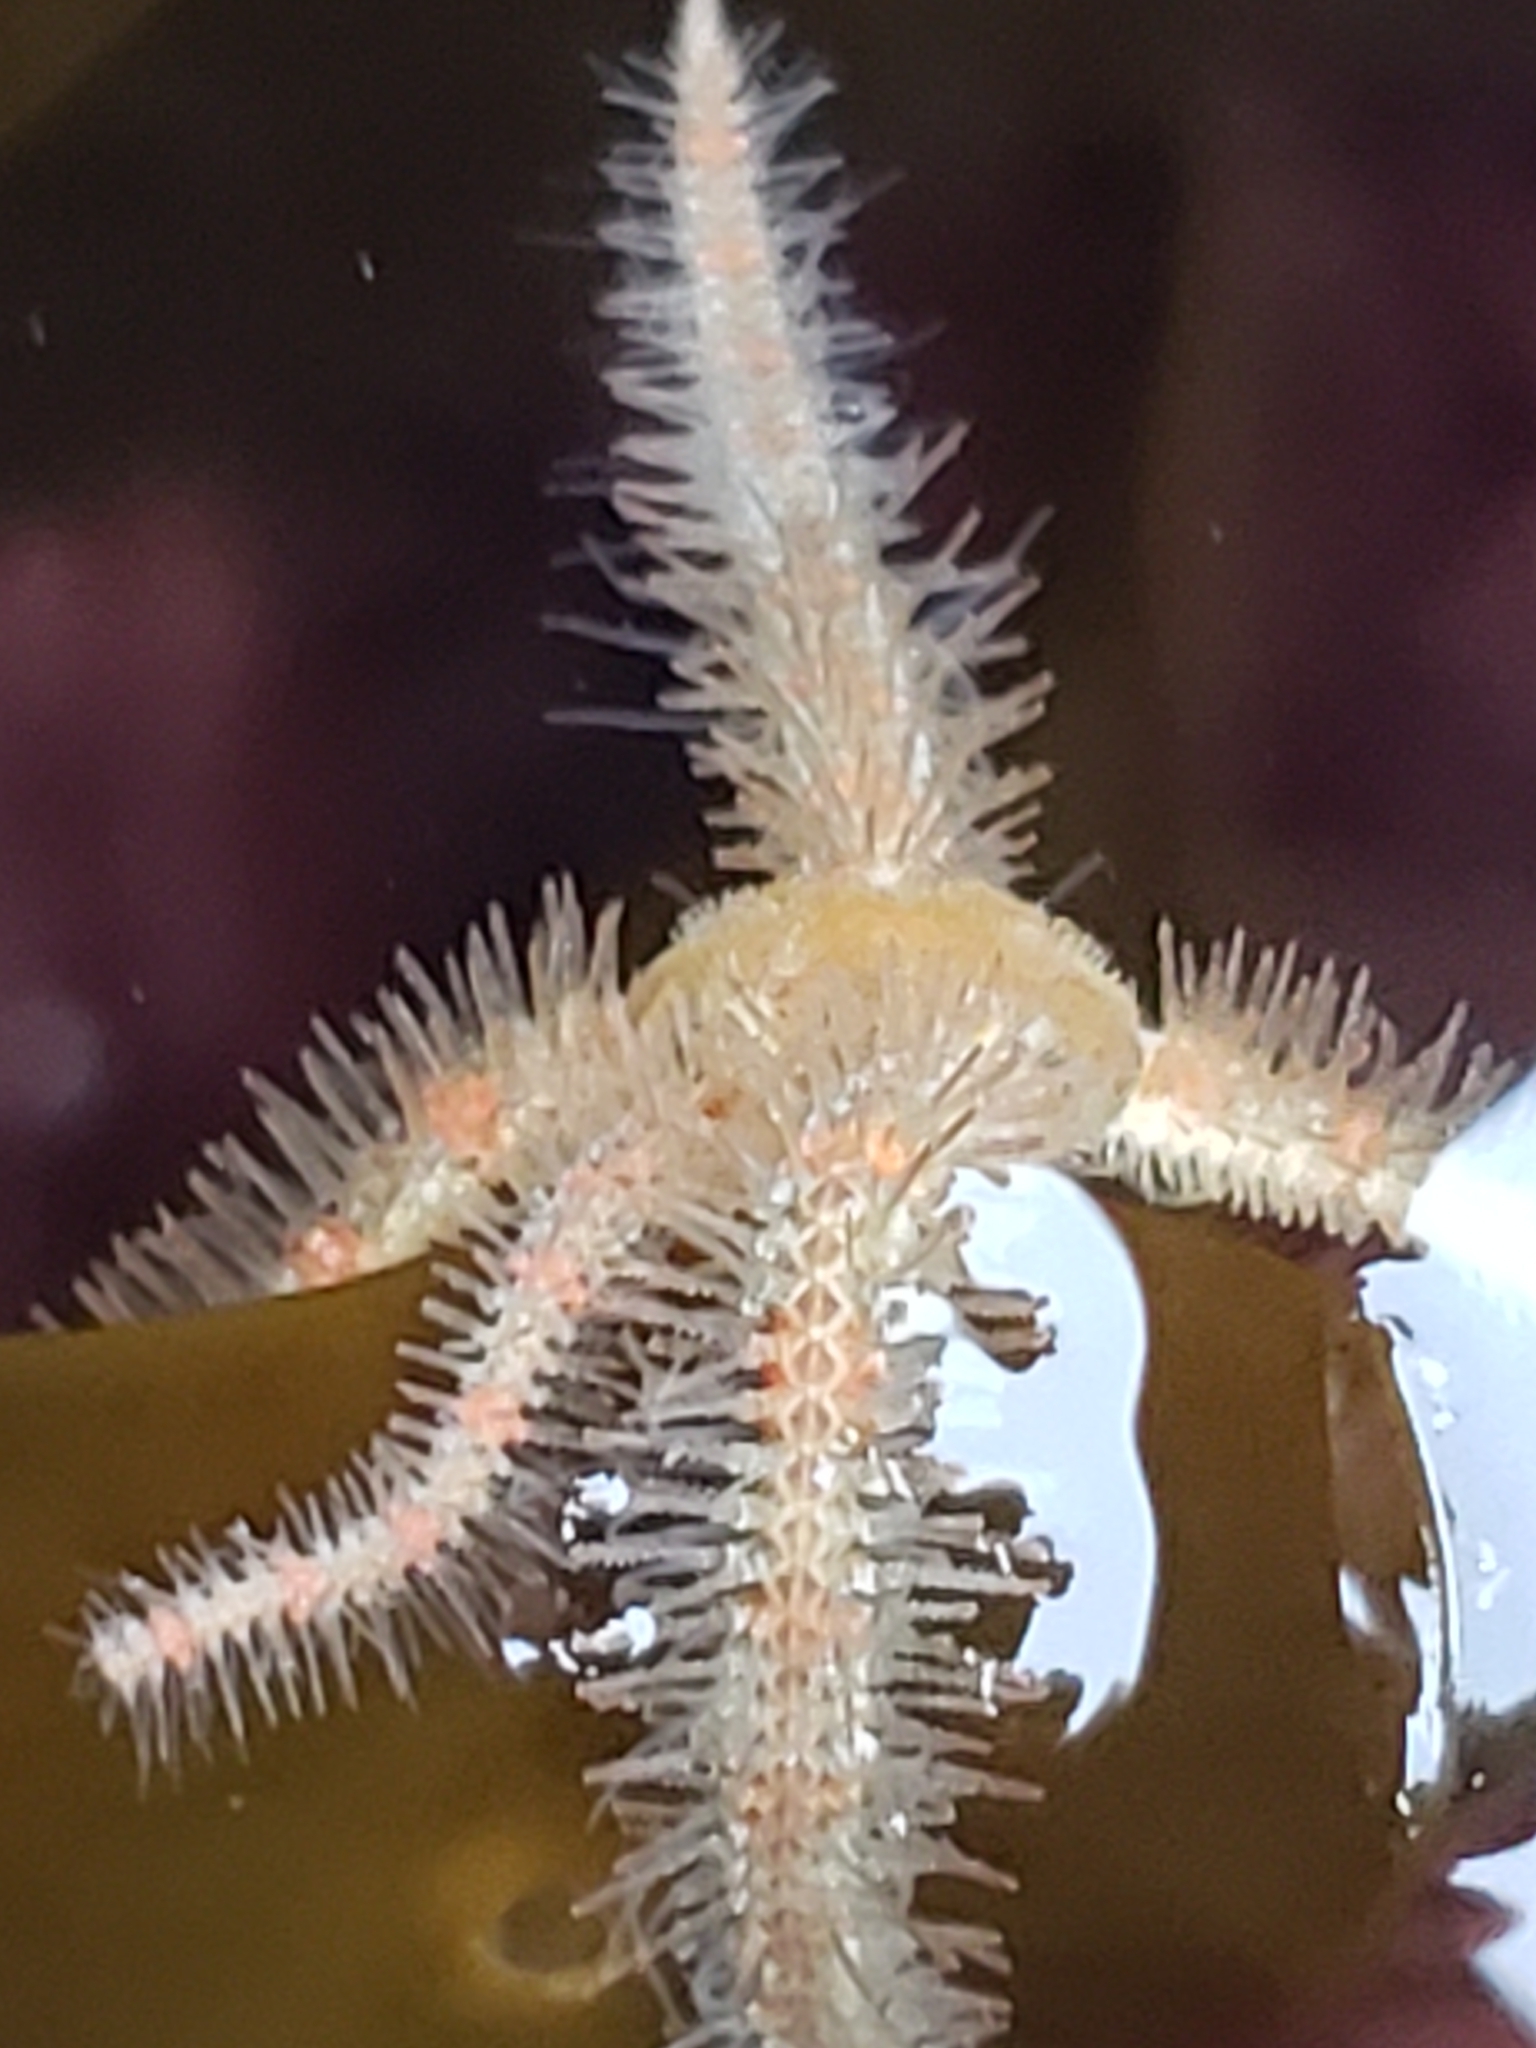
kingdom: Animalia
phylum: Echinodermata
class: Ophiuroidea
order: Amphilepidida
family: Ophiotrichidae
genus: Ophiothrix
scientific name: Ophiothrix spiculata
